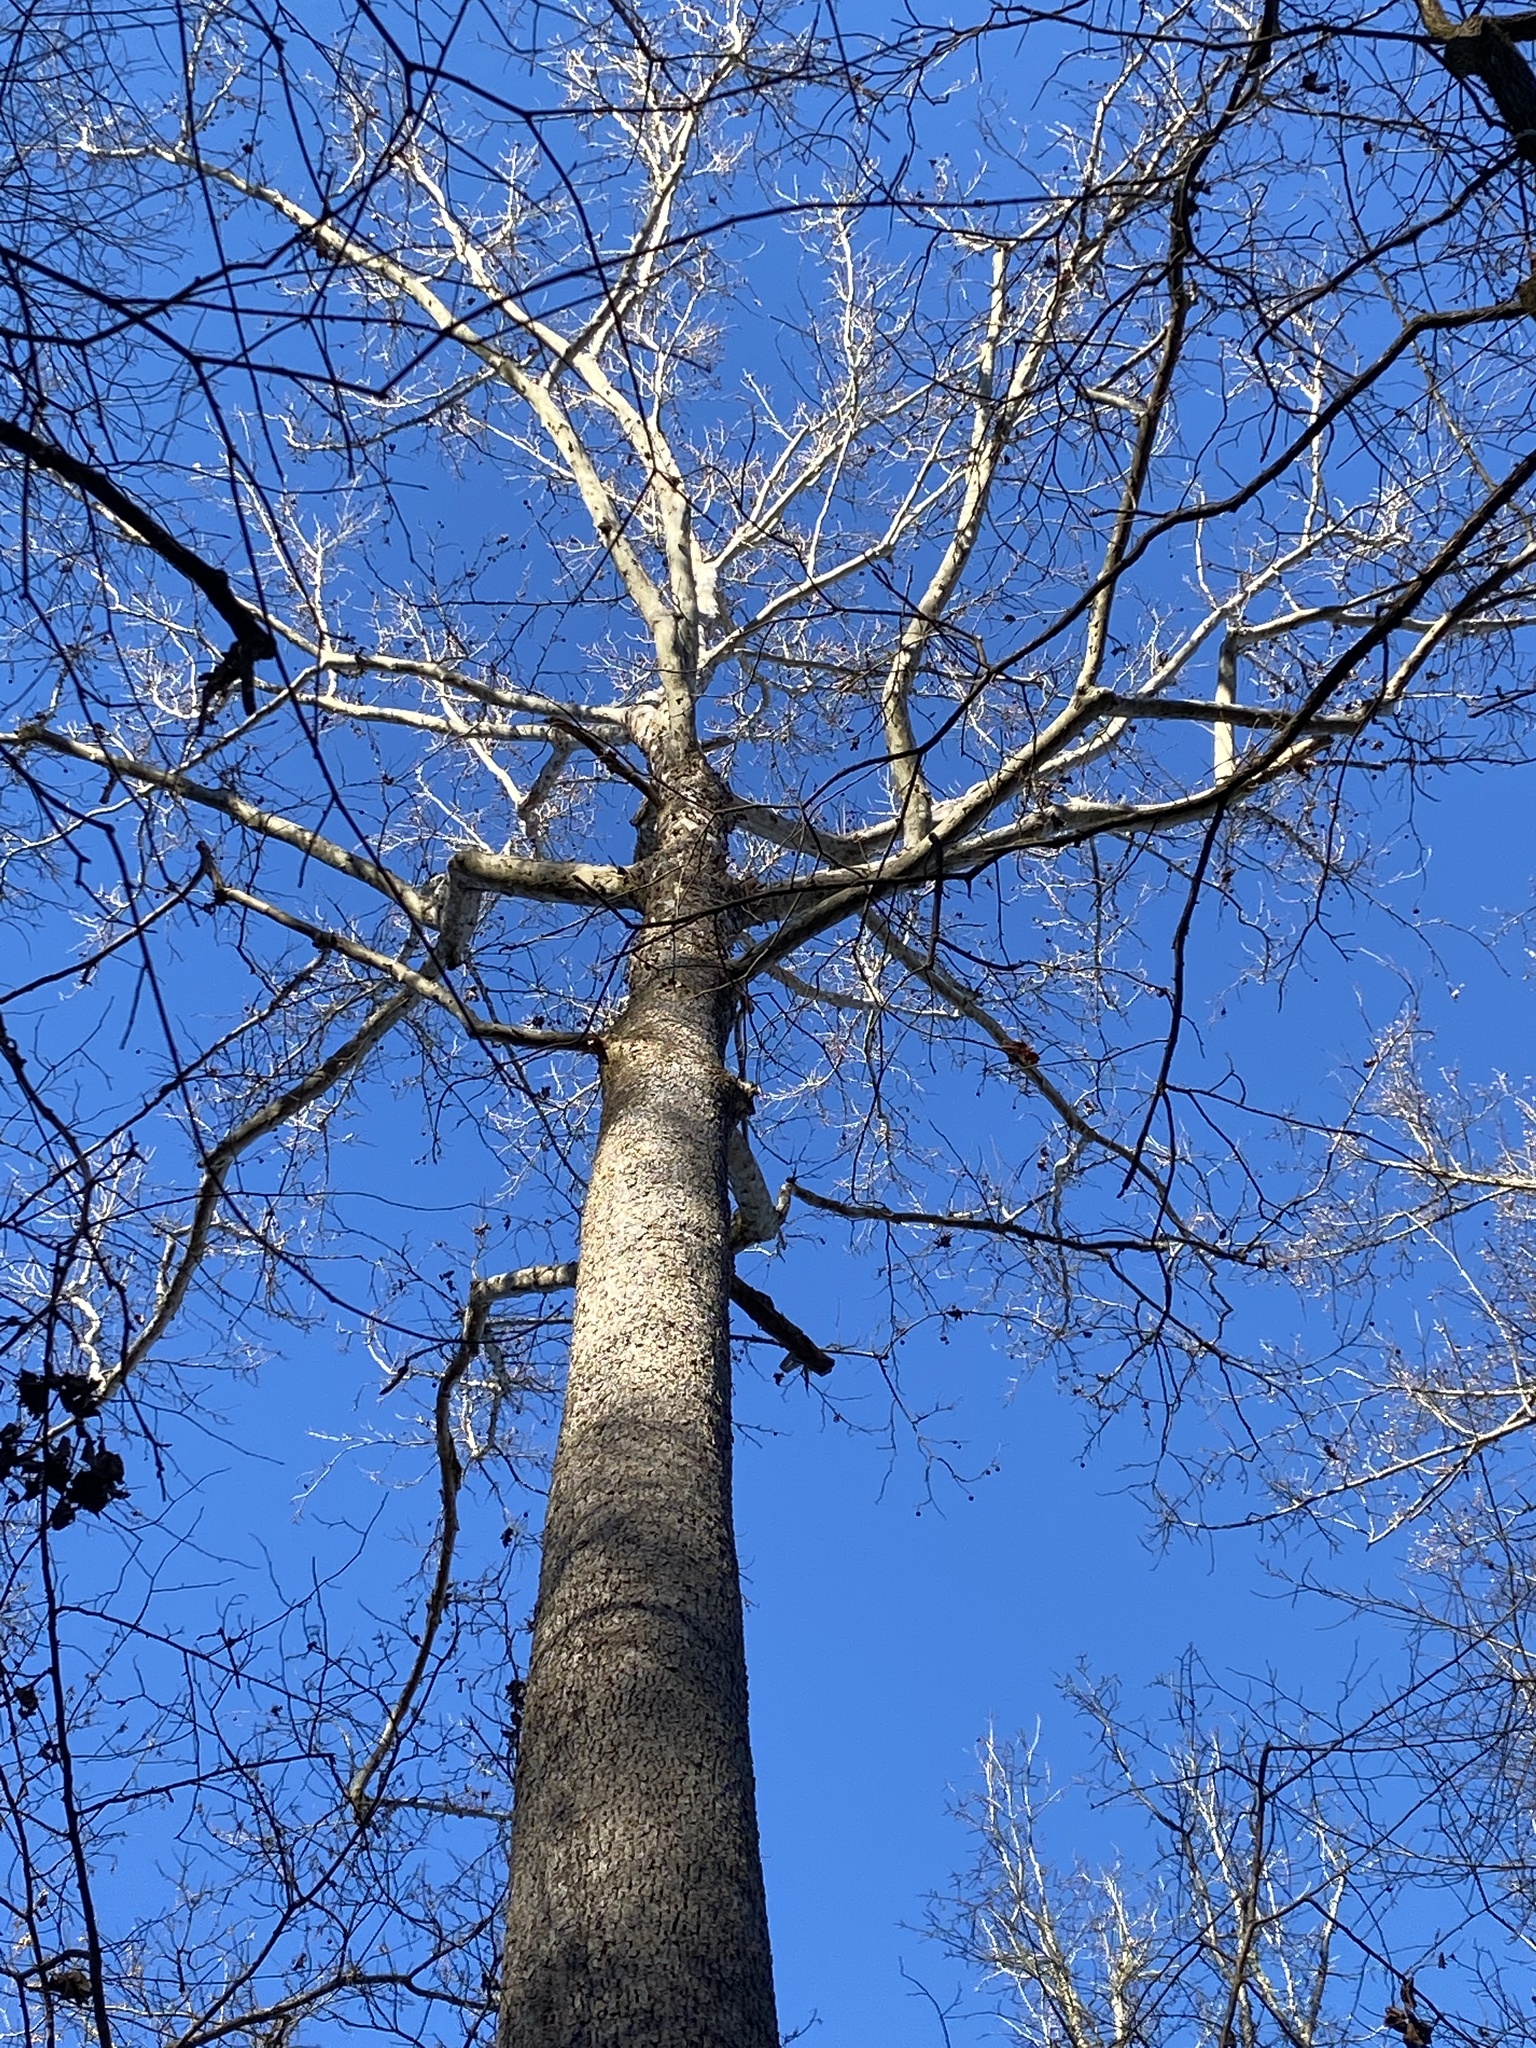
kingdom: Plantae
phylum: Tracheophyta
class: Magnoliopsida
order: Proteales
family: Platanaceae
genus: Platanus
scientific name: Platanus occidentalis
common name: American sycamore
